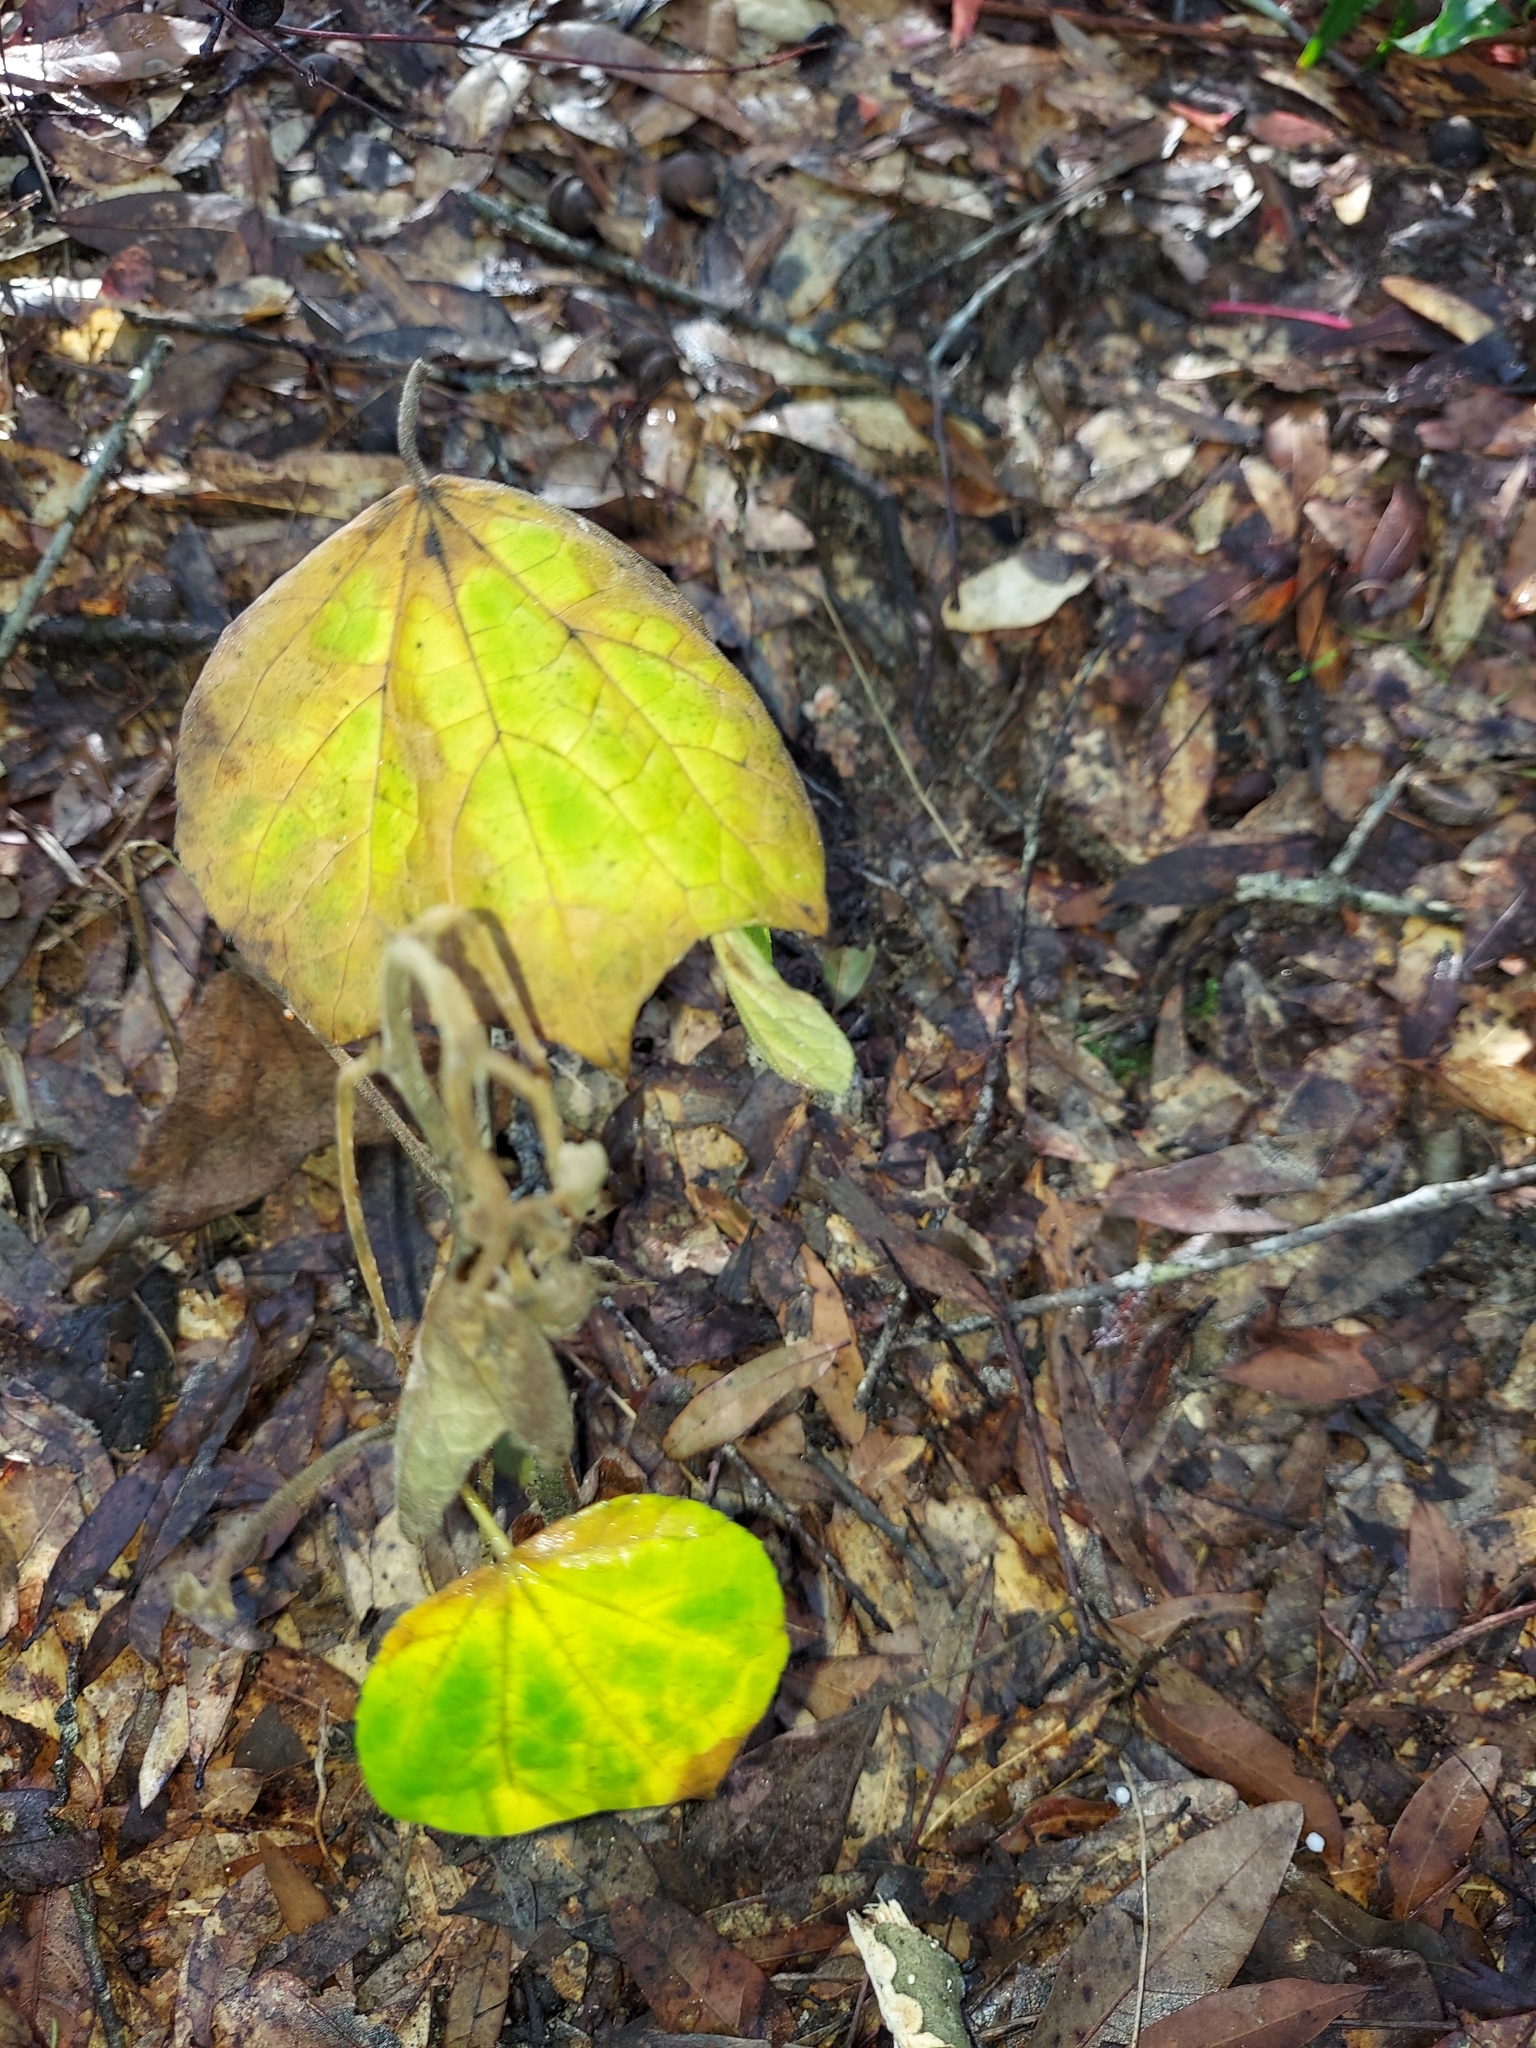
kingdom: Plantae
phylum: Tracheophyta
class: Magnoliopsida
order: Malvales
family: Malvaceae
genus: Urena
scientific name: Urena lobata
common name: Caesarweed
